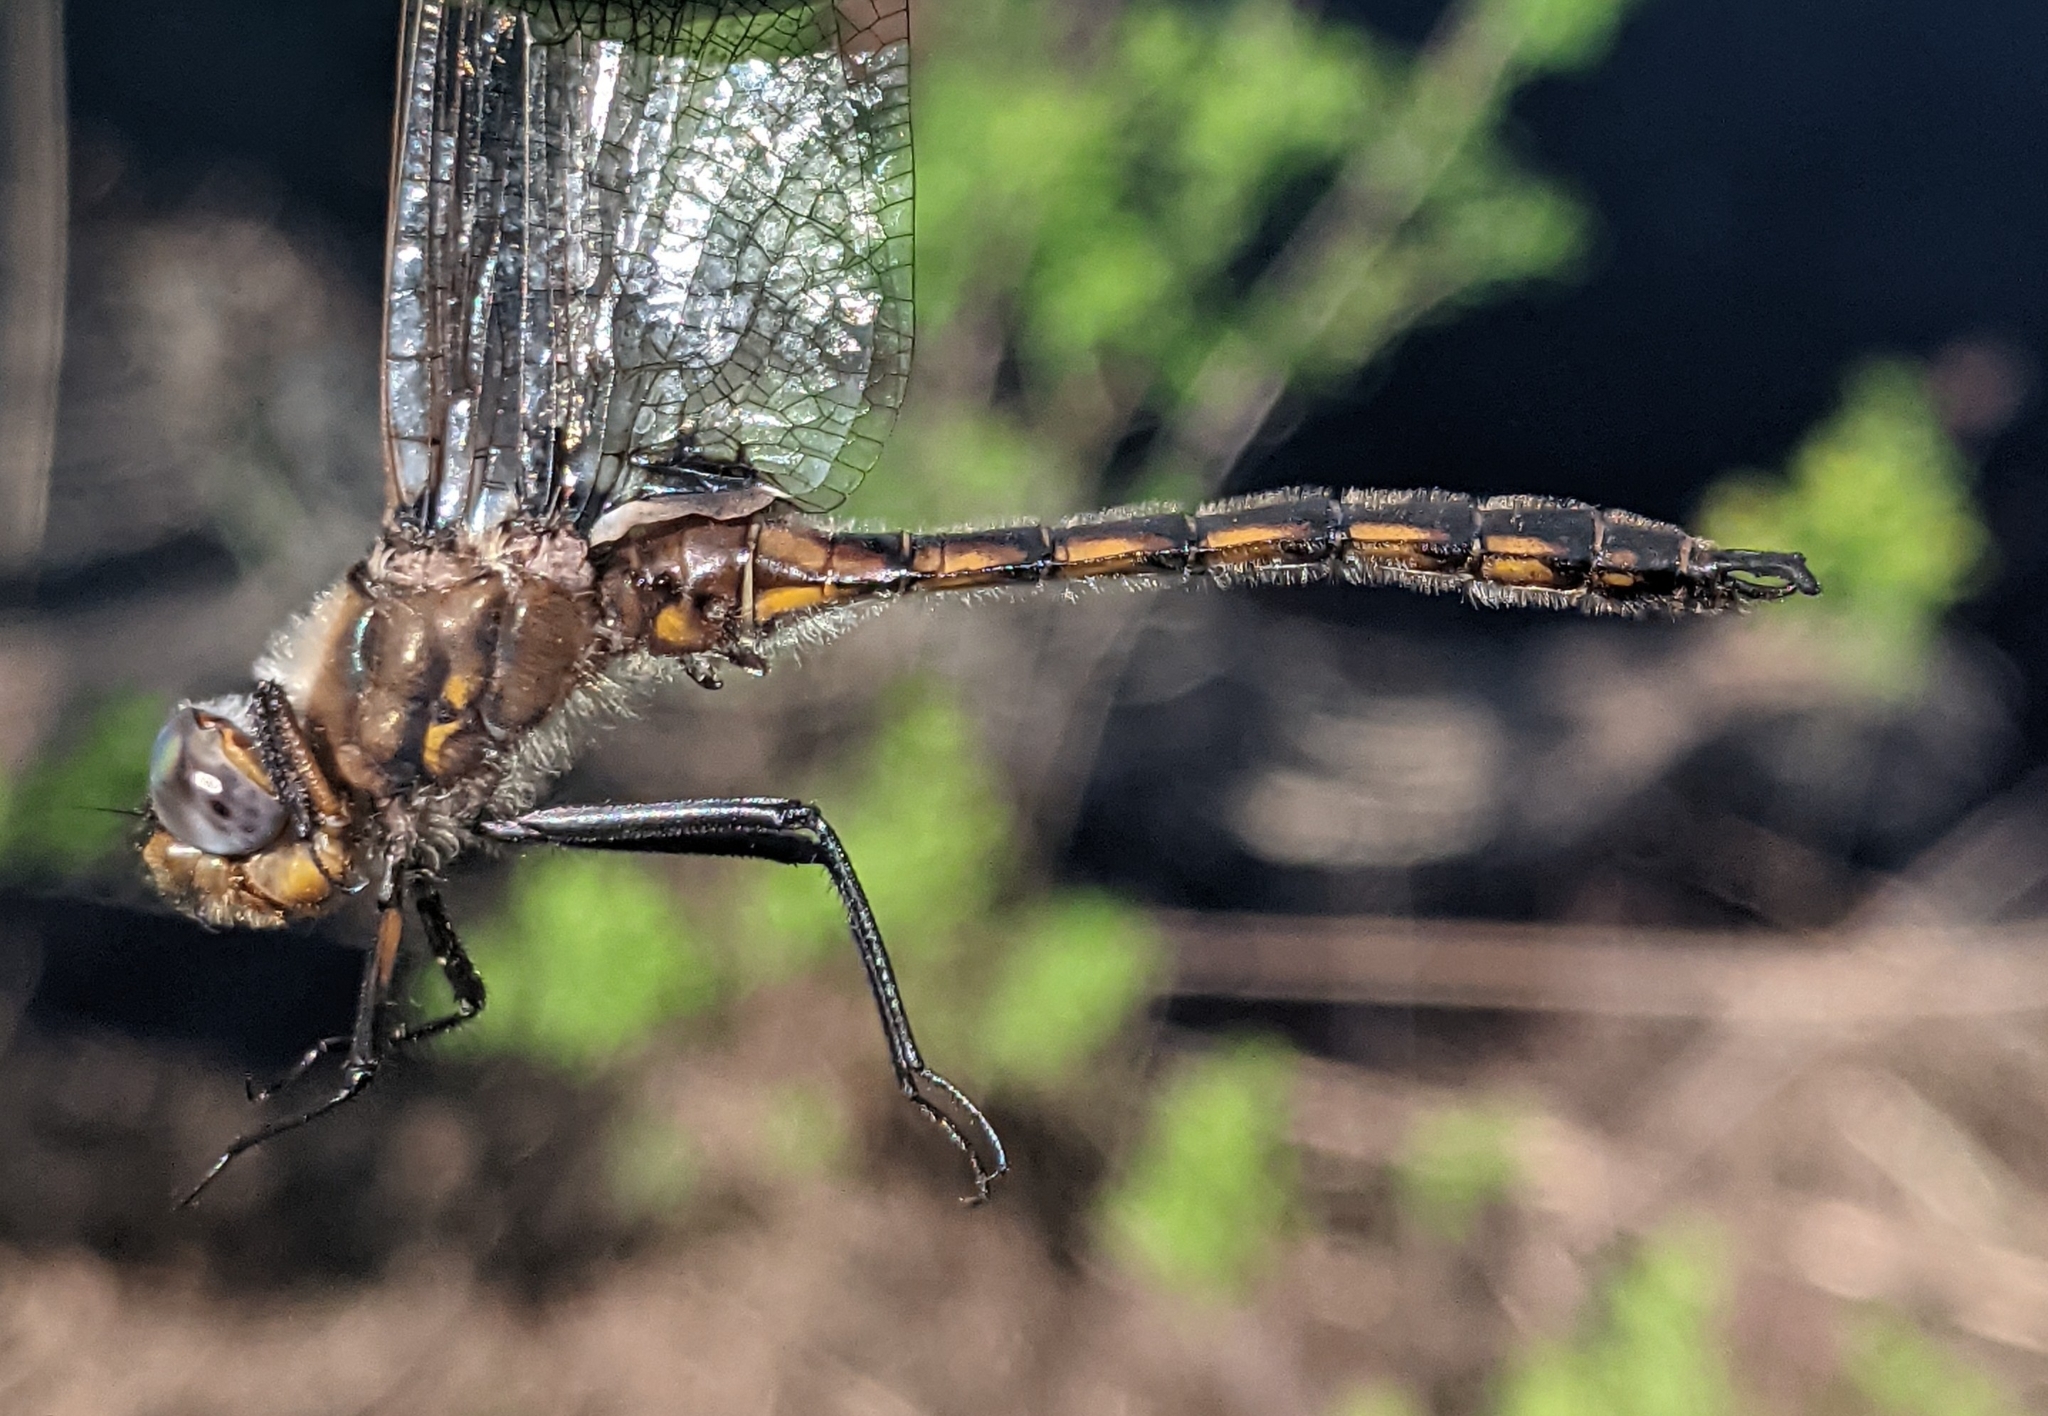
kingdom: Animalia
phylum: Arthropoda
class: Insecta
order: Odonata
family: Corduliidae
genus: Epitheca
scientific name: Epitheca canis
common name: Beaverpond baskettail
